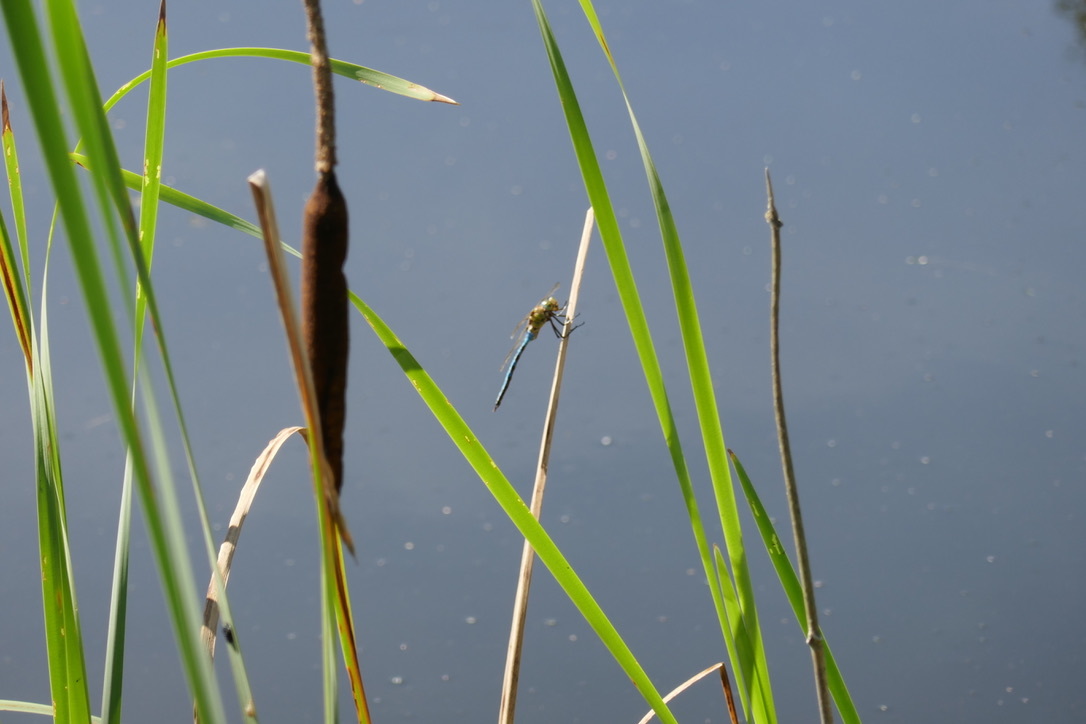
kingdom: Animalia
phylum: Arthropoda
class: Insecta
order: Odonata
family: Aeshnidae
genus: Anax
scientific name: Anax imperator
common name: Emperor dragonfly
